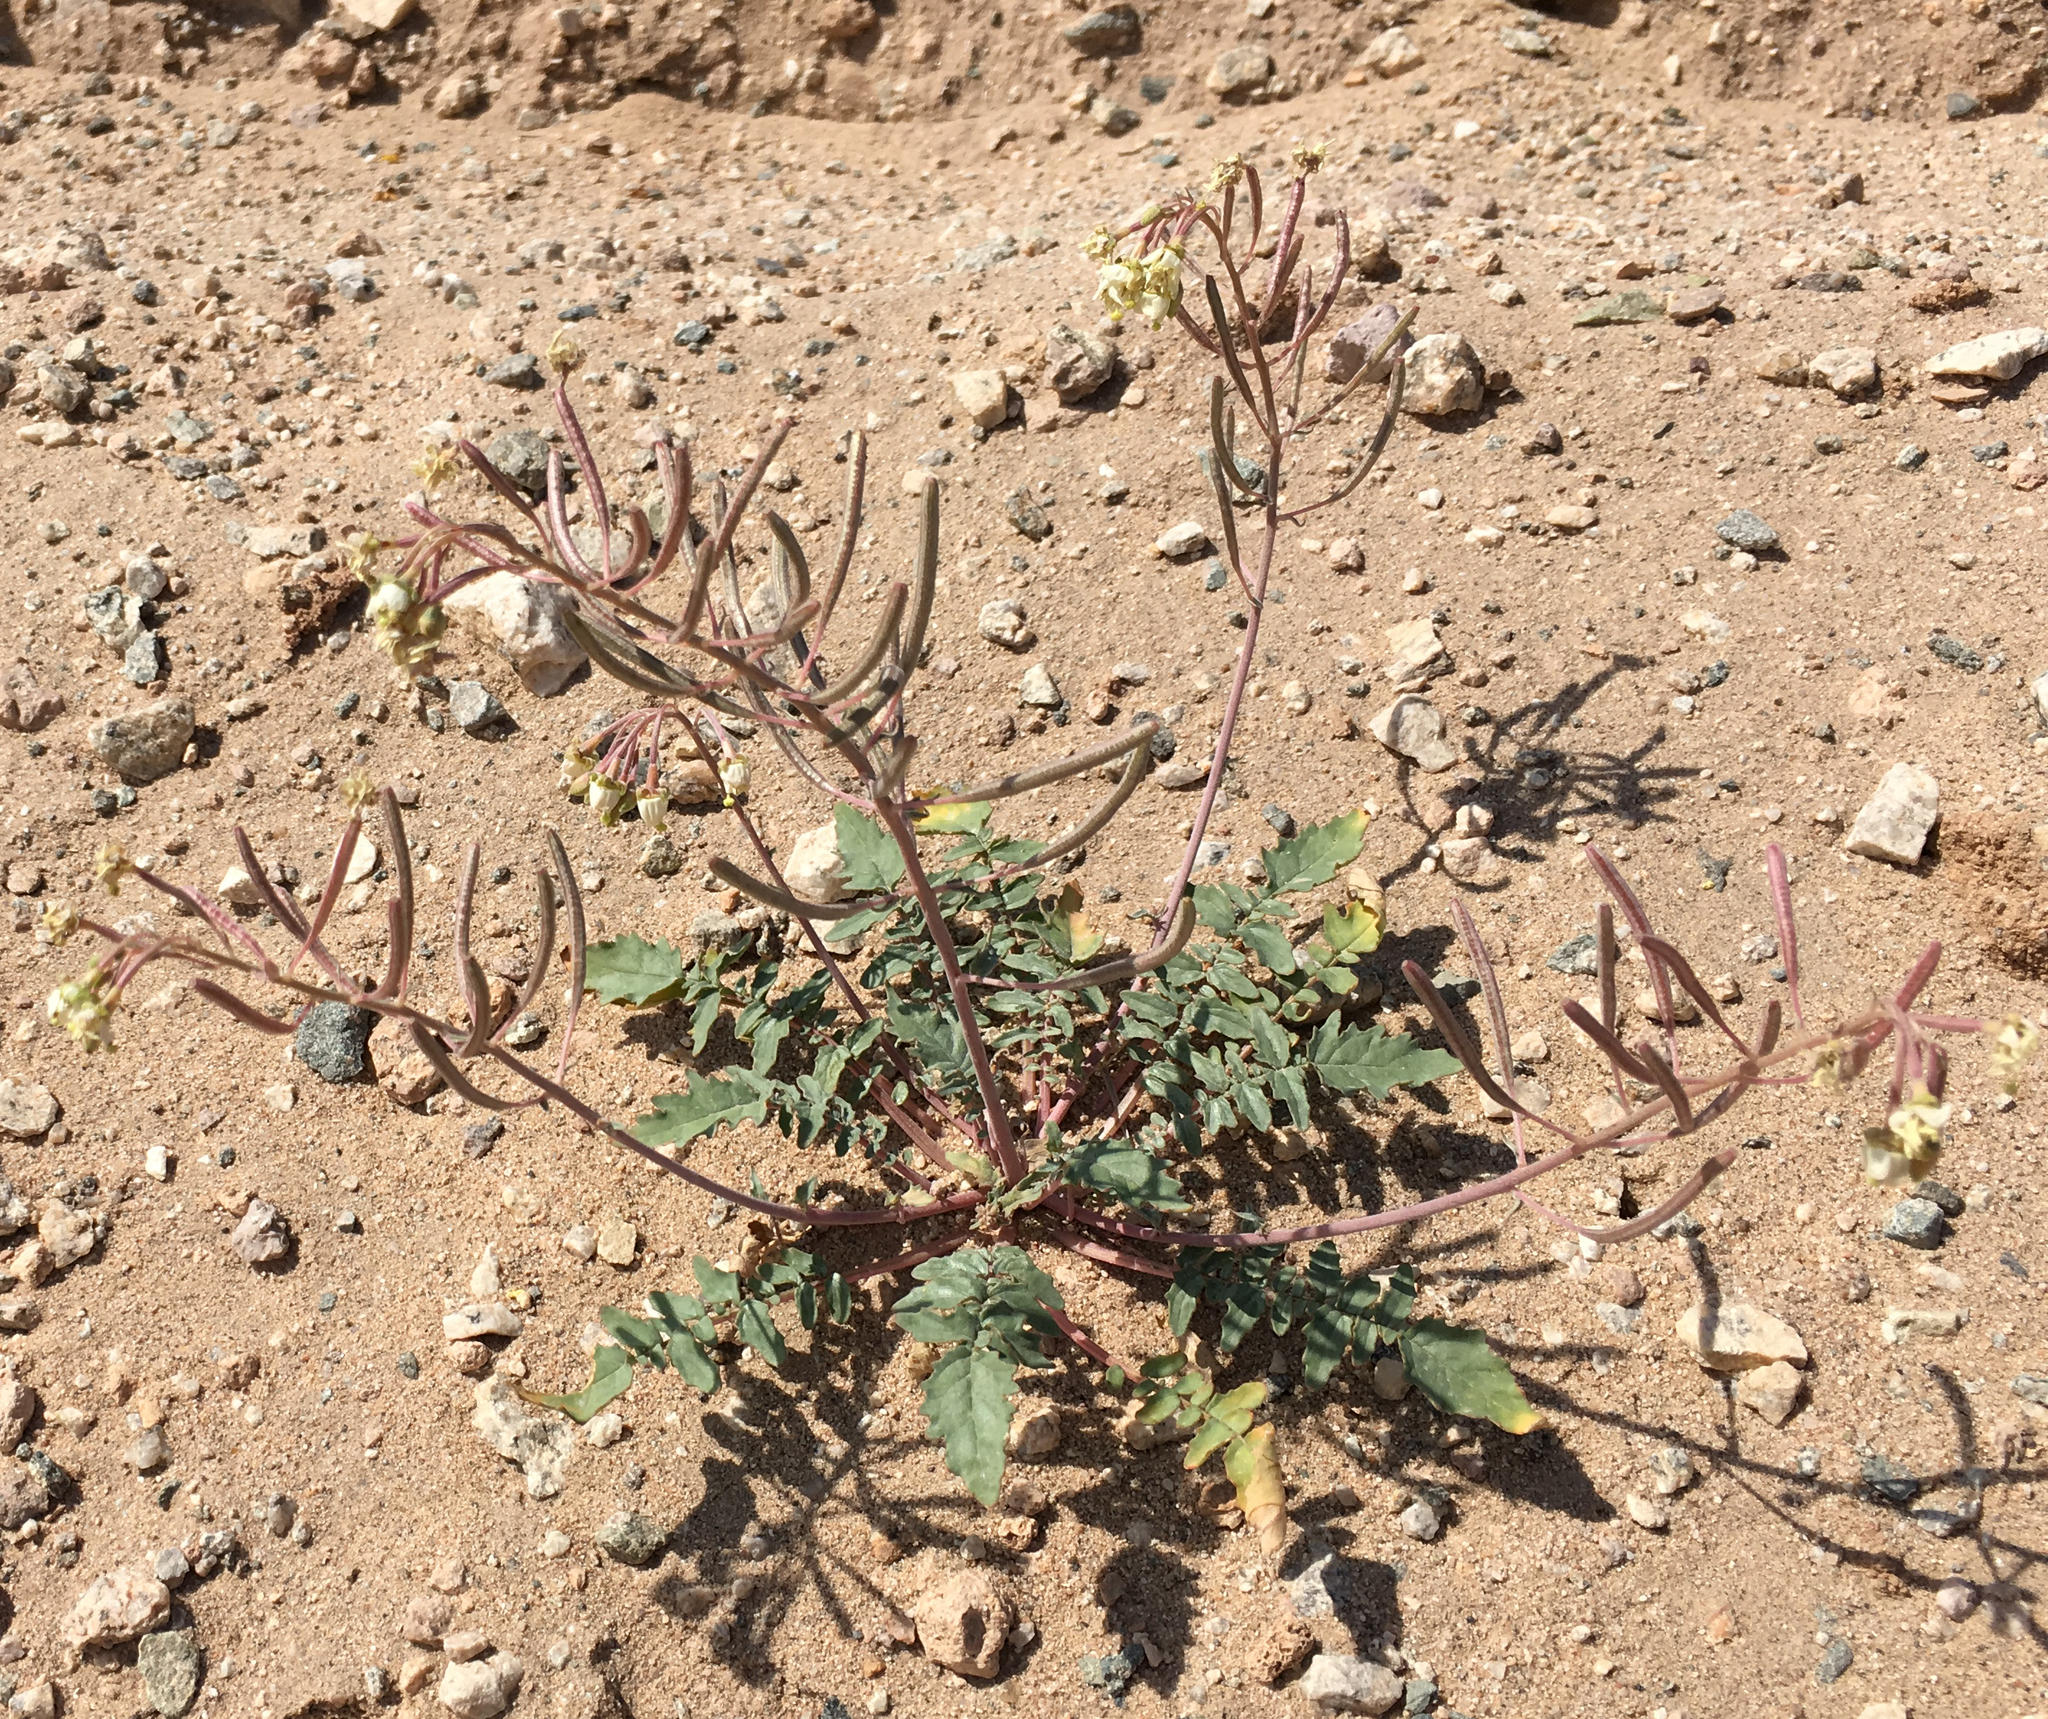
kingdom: Plantae
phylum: Tracheophyta
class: Magnoliopsida
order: Myrtales
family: Onagraceae
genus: Chylismia
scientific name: Chylismia claviformis
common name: Browneyes
